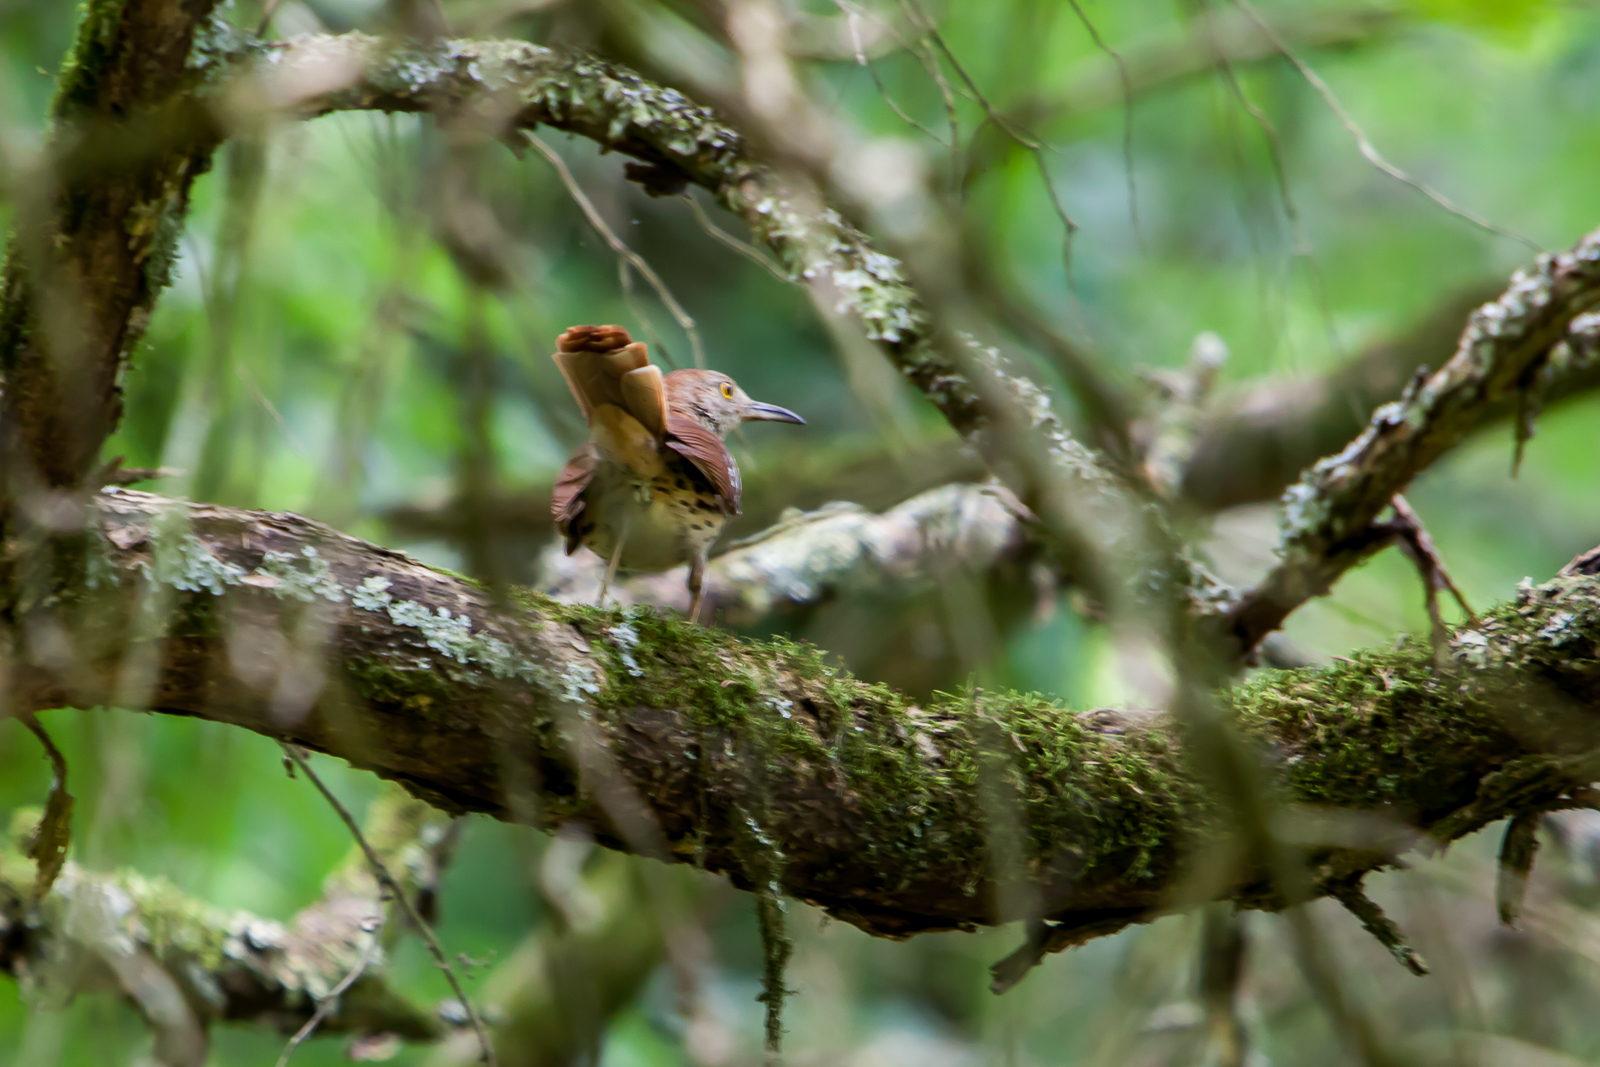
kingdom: Animalia
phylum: Chordata
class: Aves
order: Passeriformes
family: Mimidae
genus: Toxostoma
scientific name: Toxostoma rufum
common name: Brown thrasher
